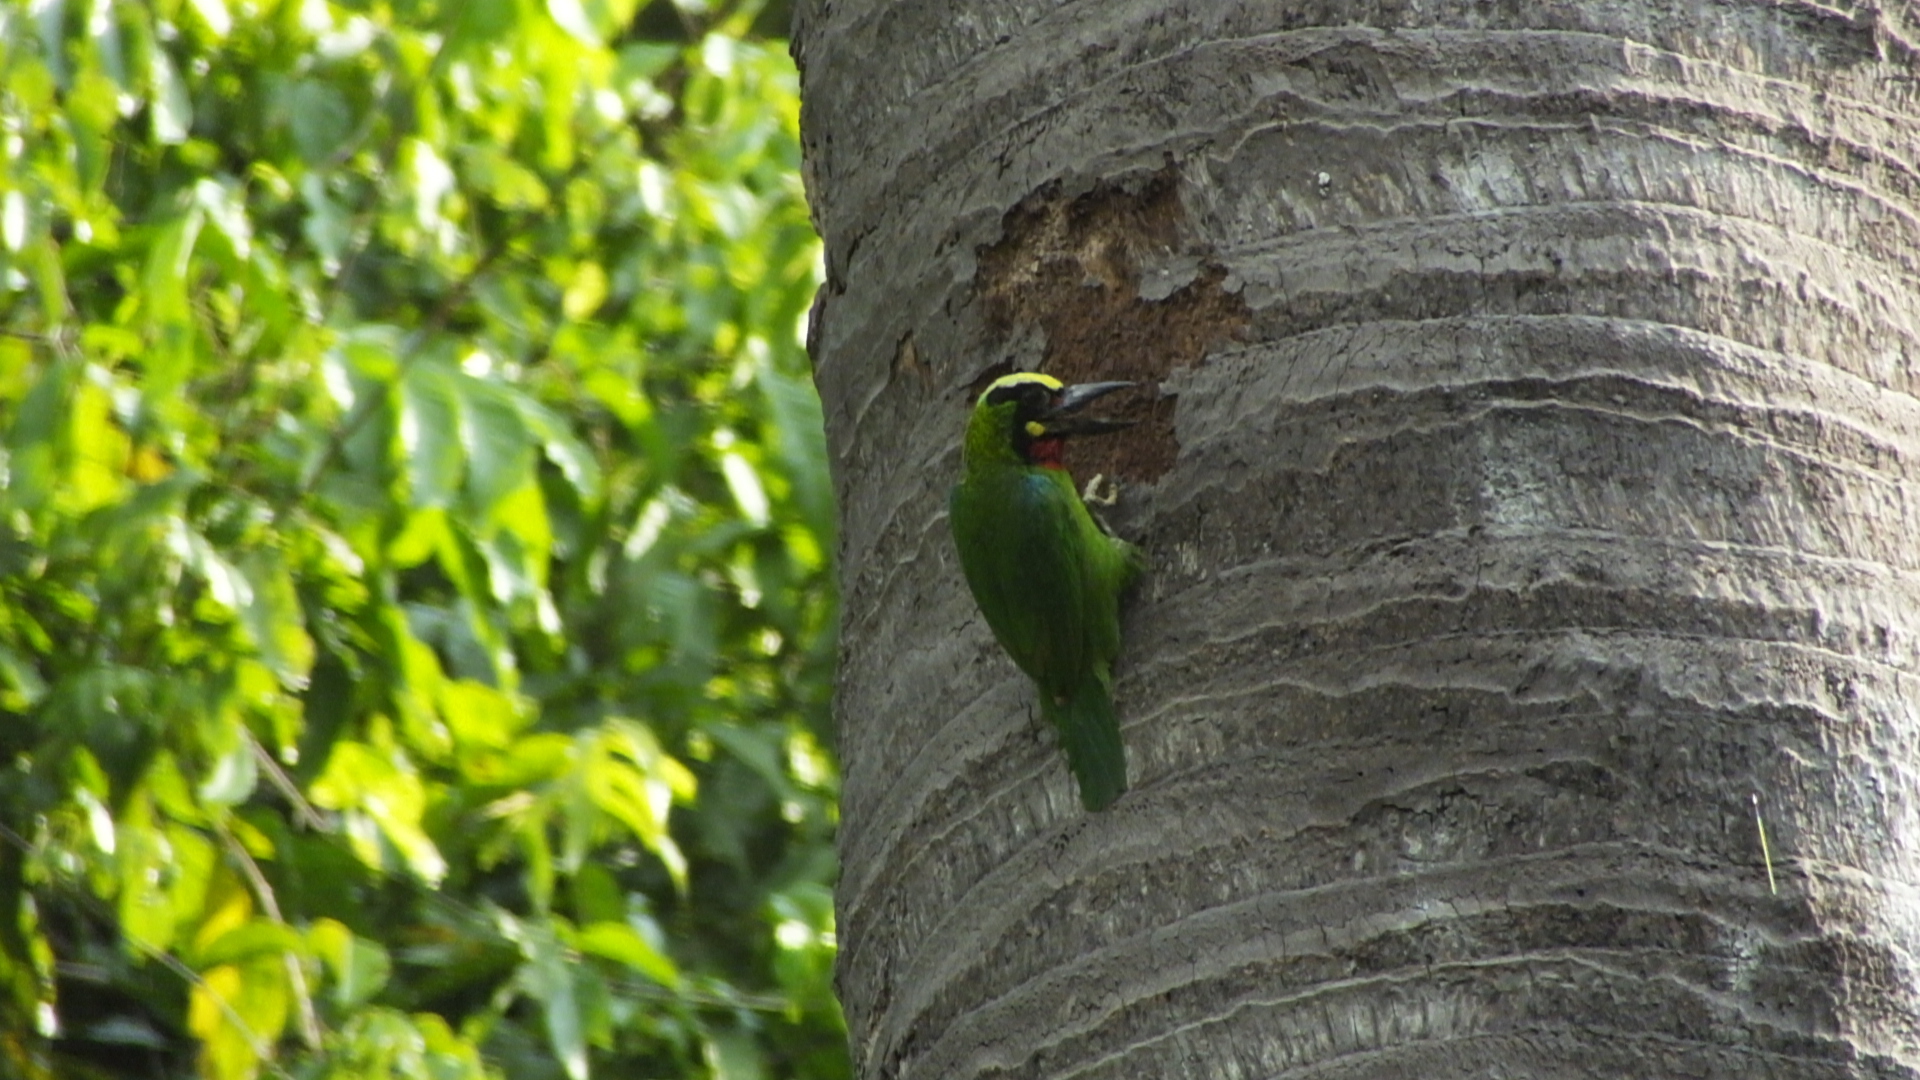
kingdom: Animalia
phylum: Chordata
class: Aves
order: Piciformes
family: Megalaimidae
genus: Psilopogon
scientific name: Psilopogon javensis
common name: Black-banded barbet
